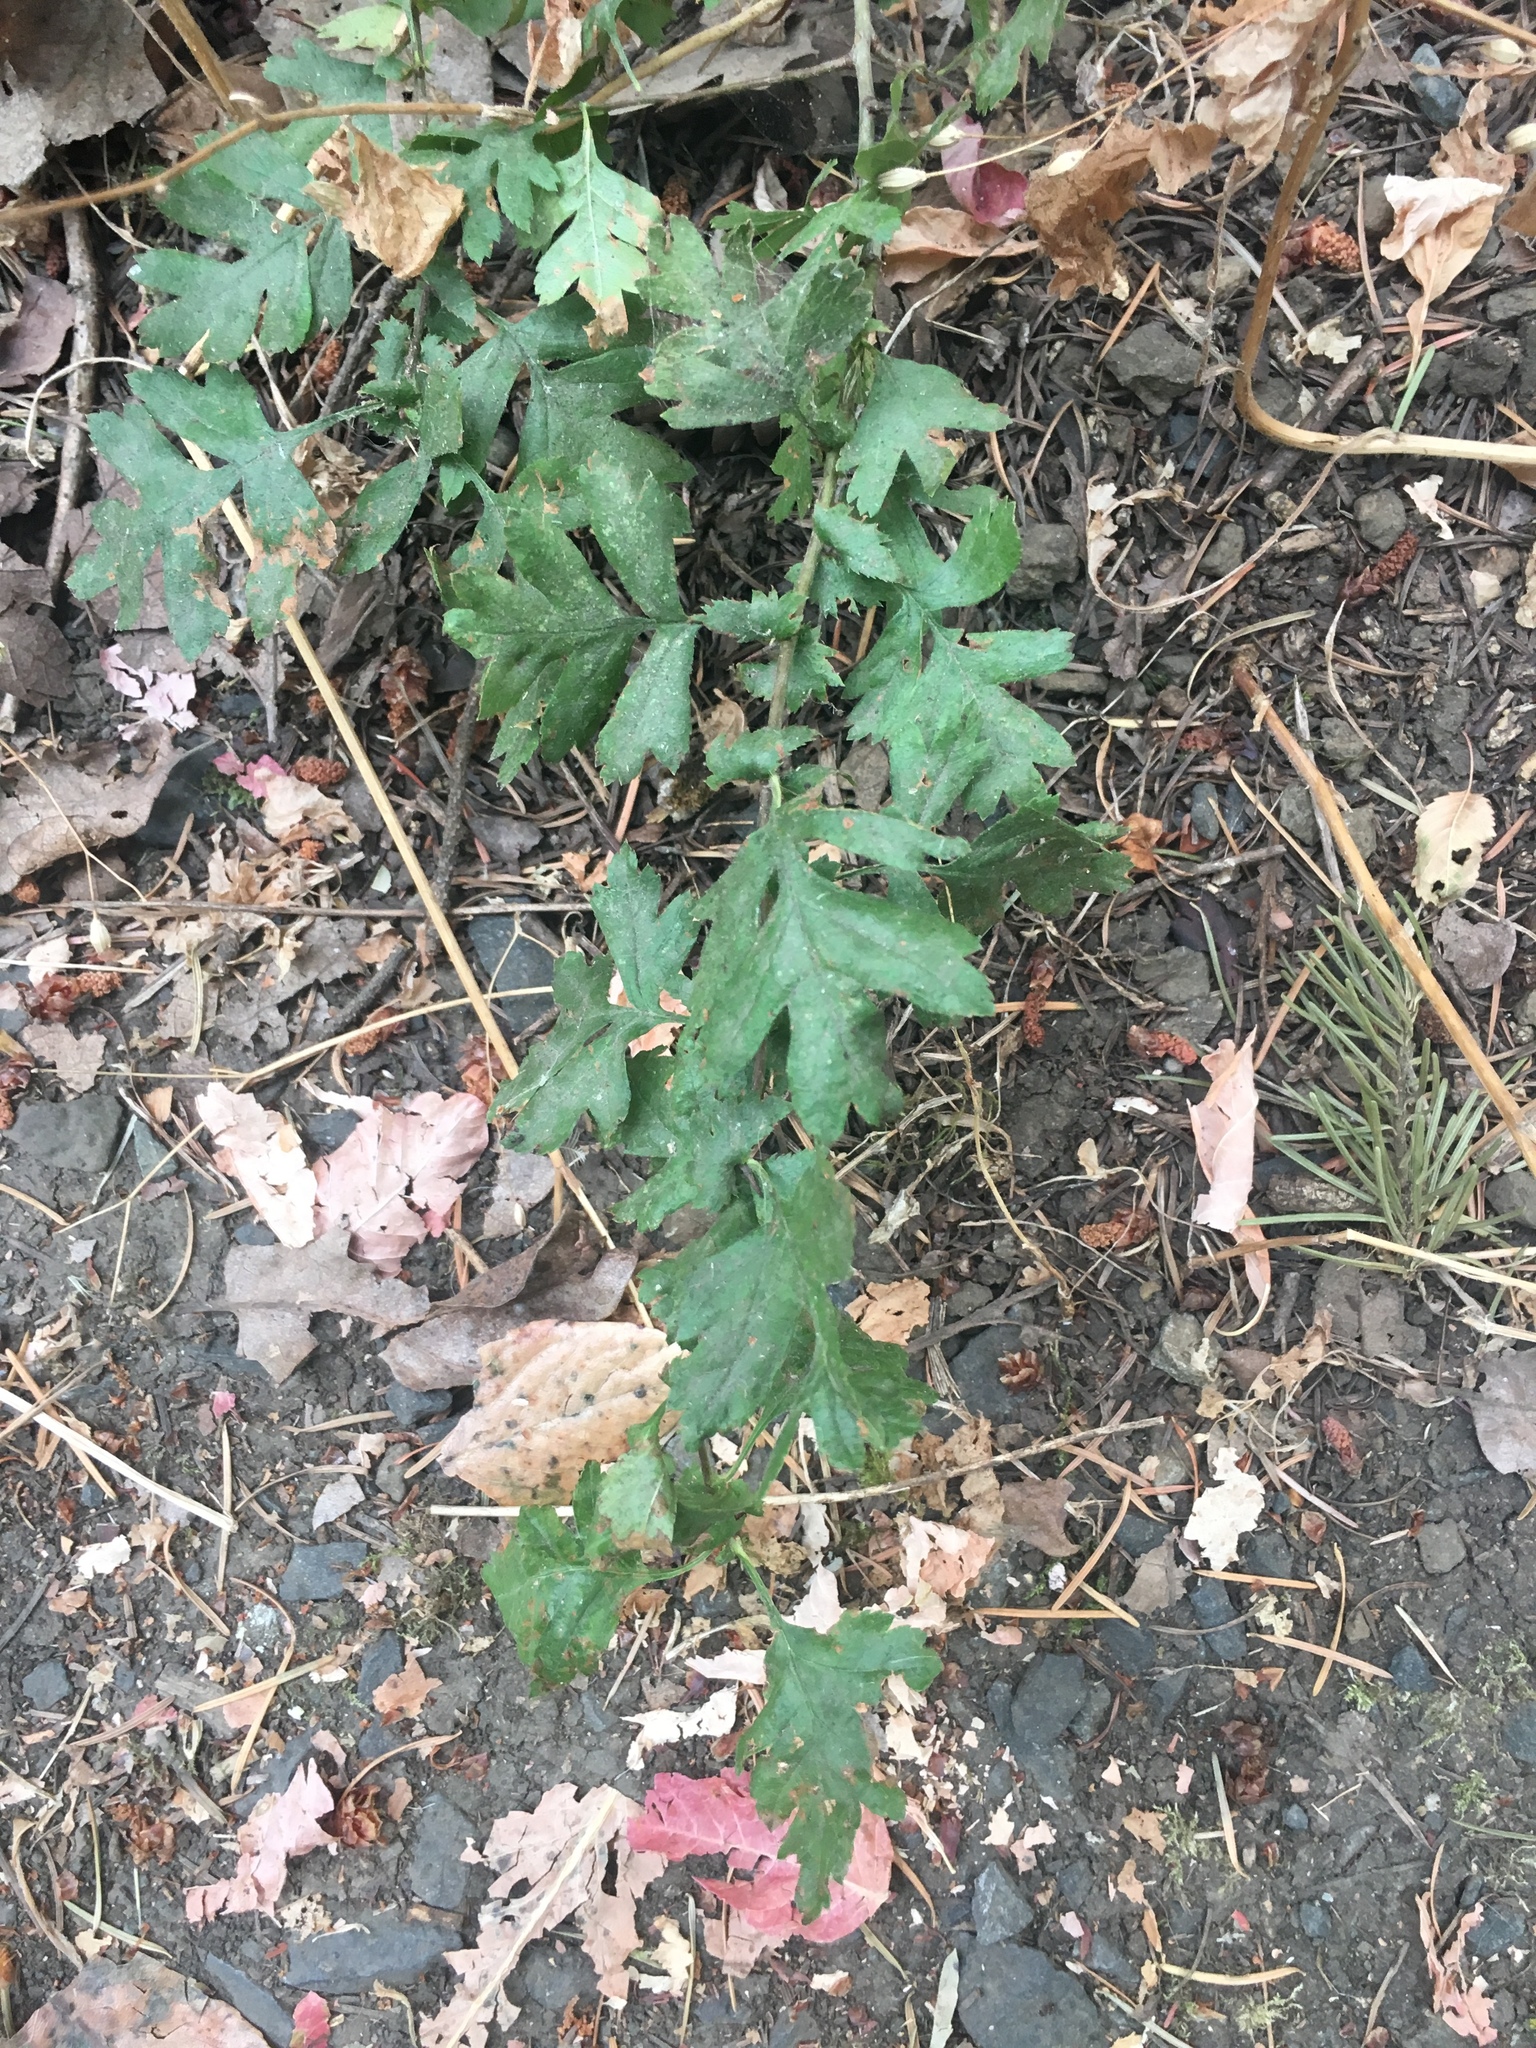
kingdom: Plantae
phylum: Tracheophyta
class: Magnoliopsida
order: Rosales
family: Rosaceae
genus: Crataegus
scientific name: Crataegus monogyna
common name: Hawthorn
